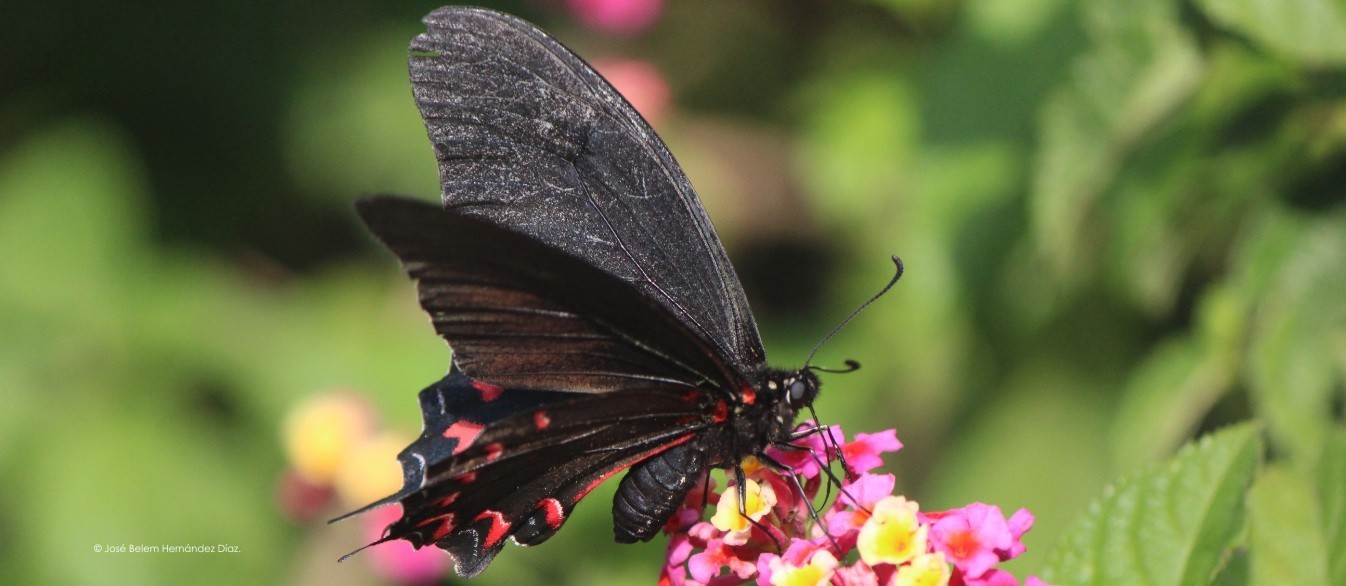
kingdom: Animalia
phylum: Arthropoda
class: Insecta
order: Lepidoptera
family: Papilionidae
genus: Mimoides
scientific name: Mimoides thymbraeus
